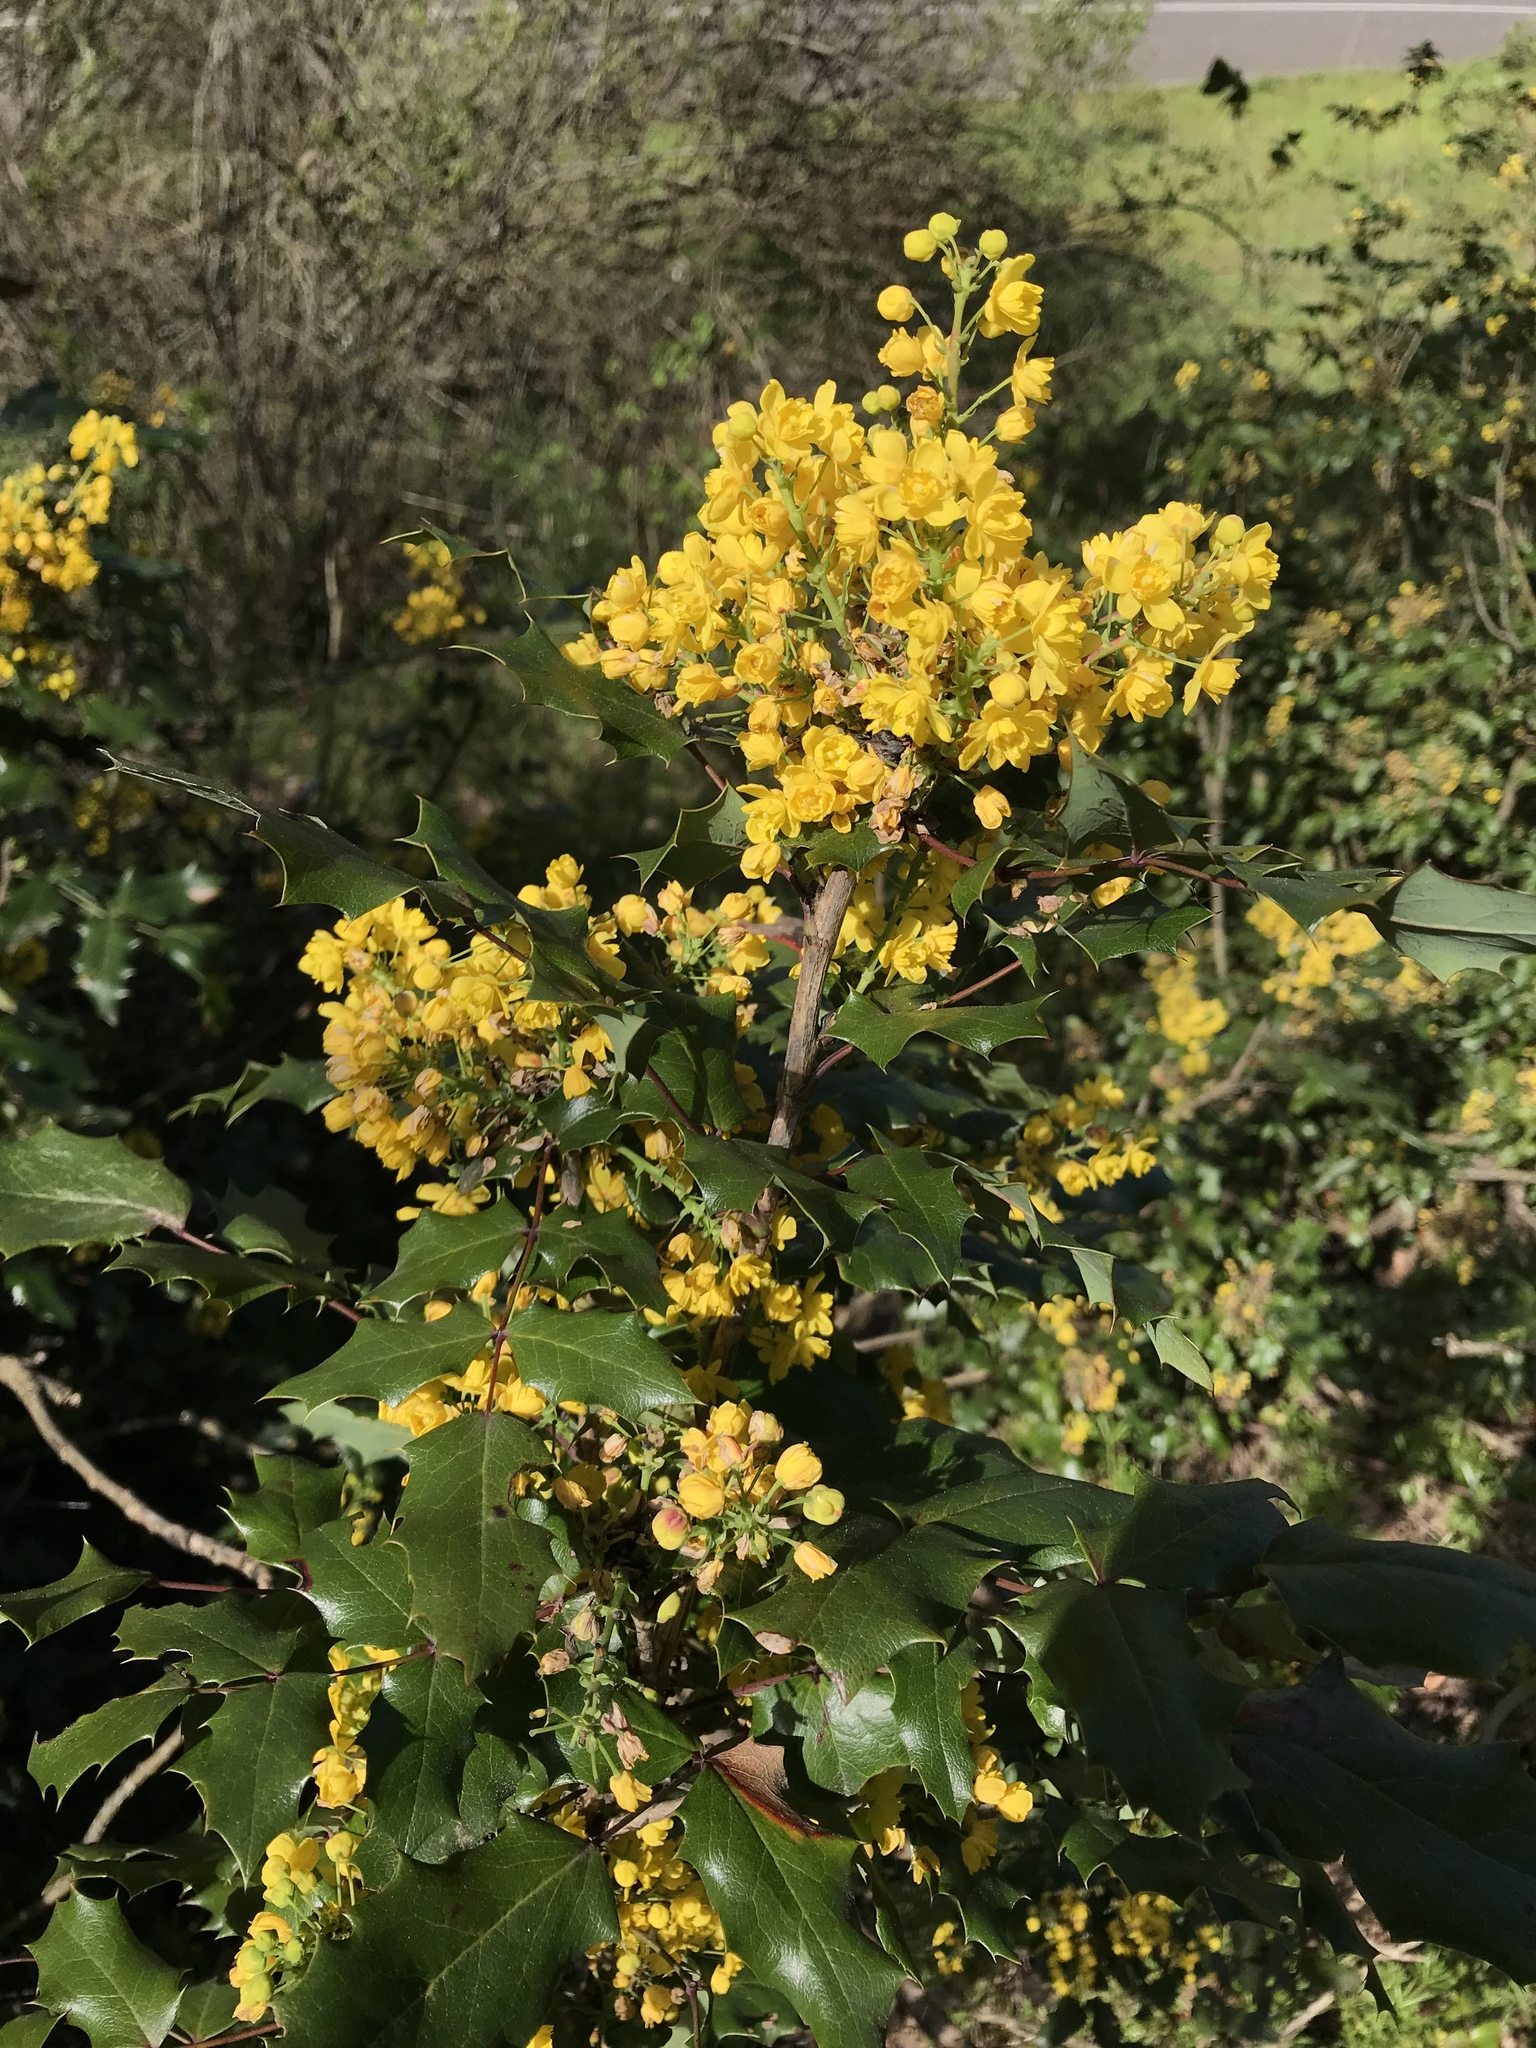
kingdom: Plantae
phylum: Tracheophyta
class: Magnoliopsida
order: Ranunculales
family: Berberidaceae
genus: Mahonia
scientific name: Mahonia aquifolium
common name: Oregon-grape
